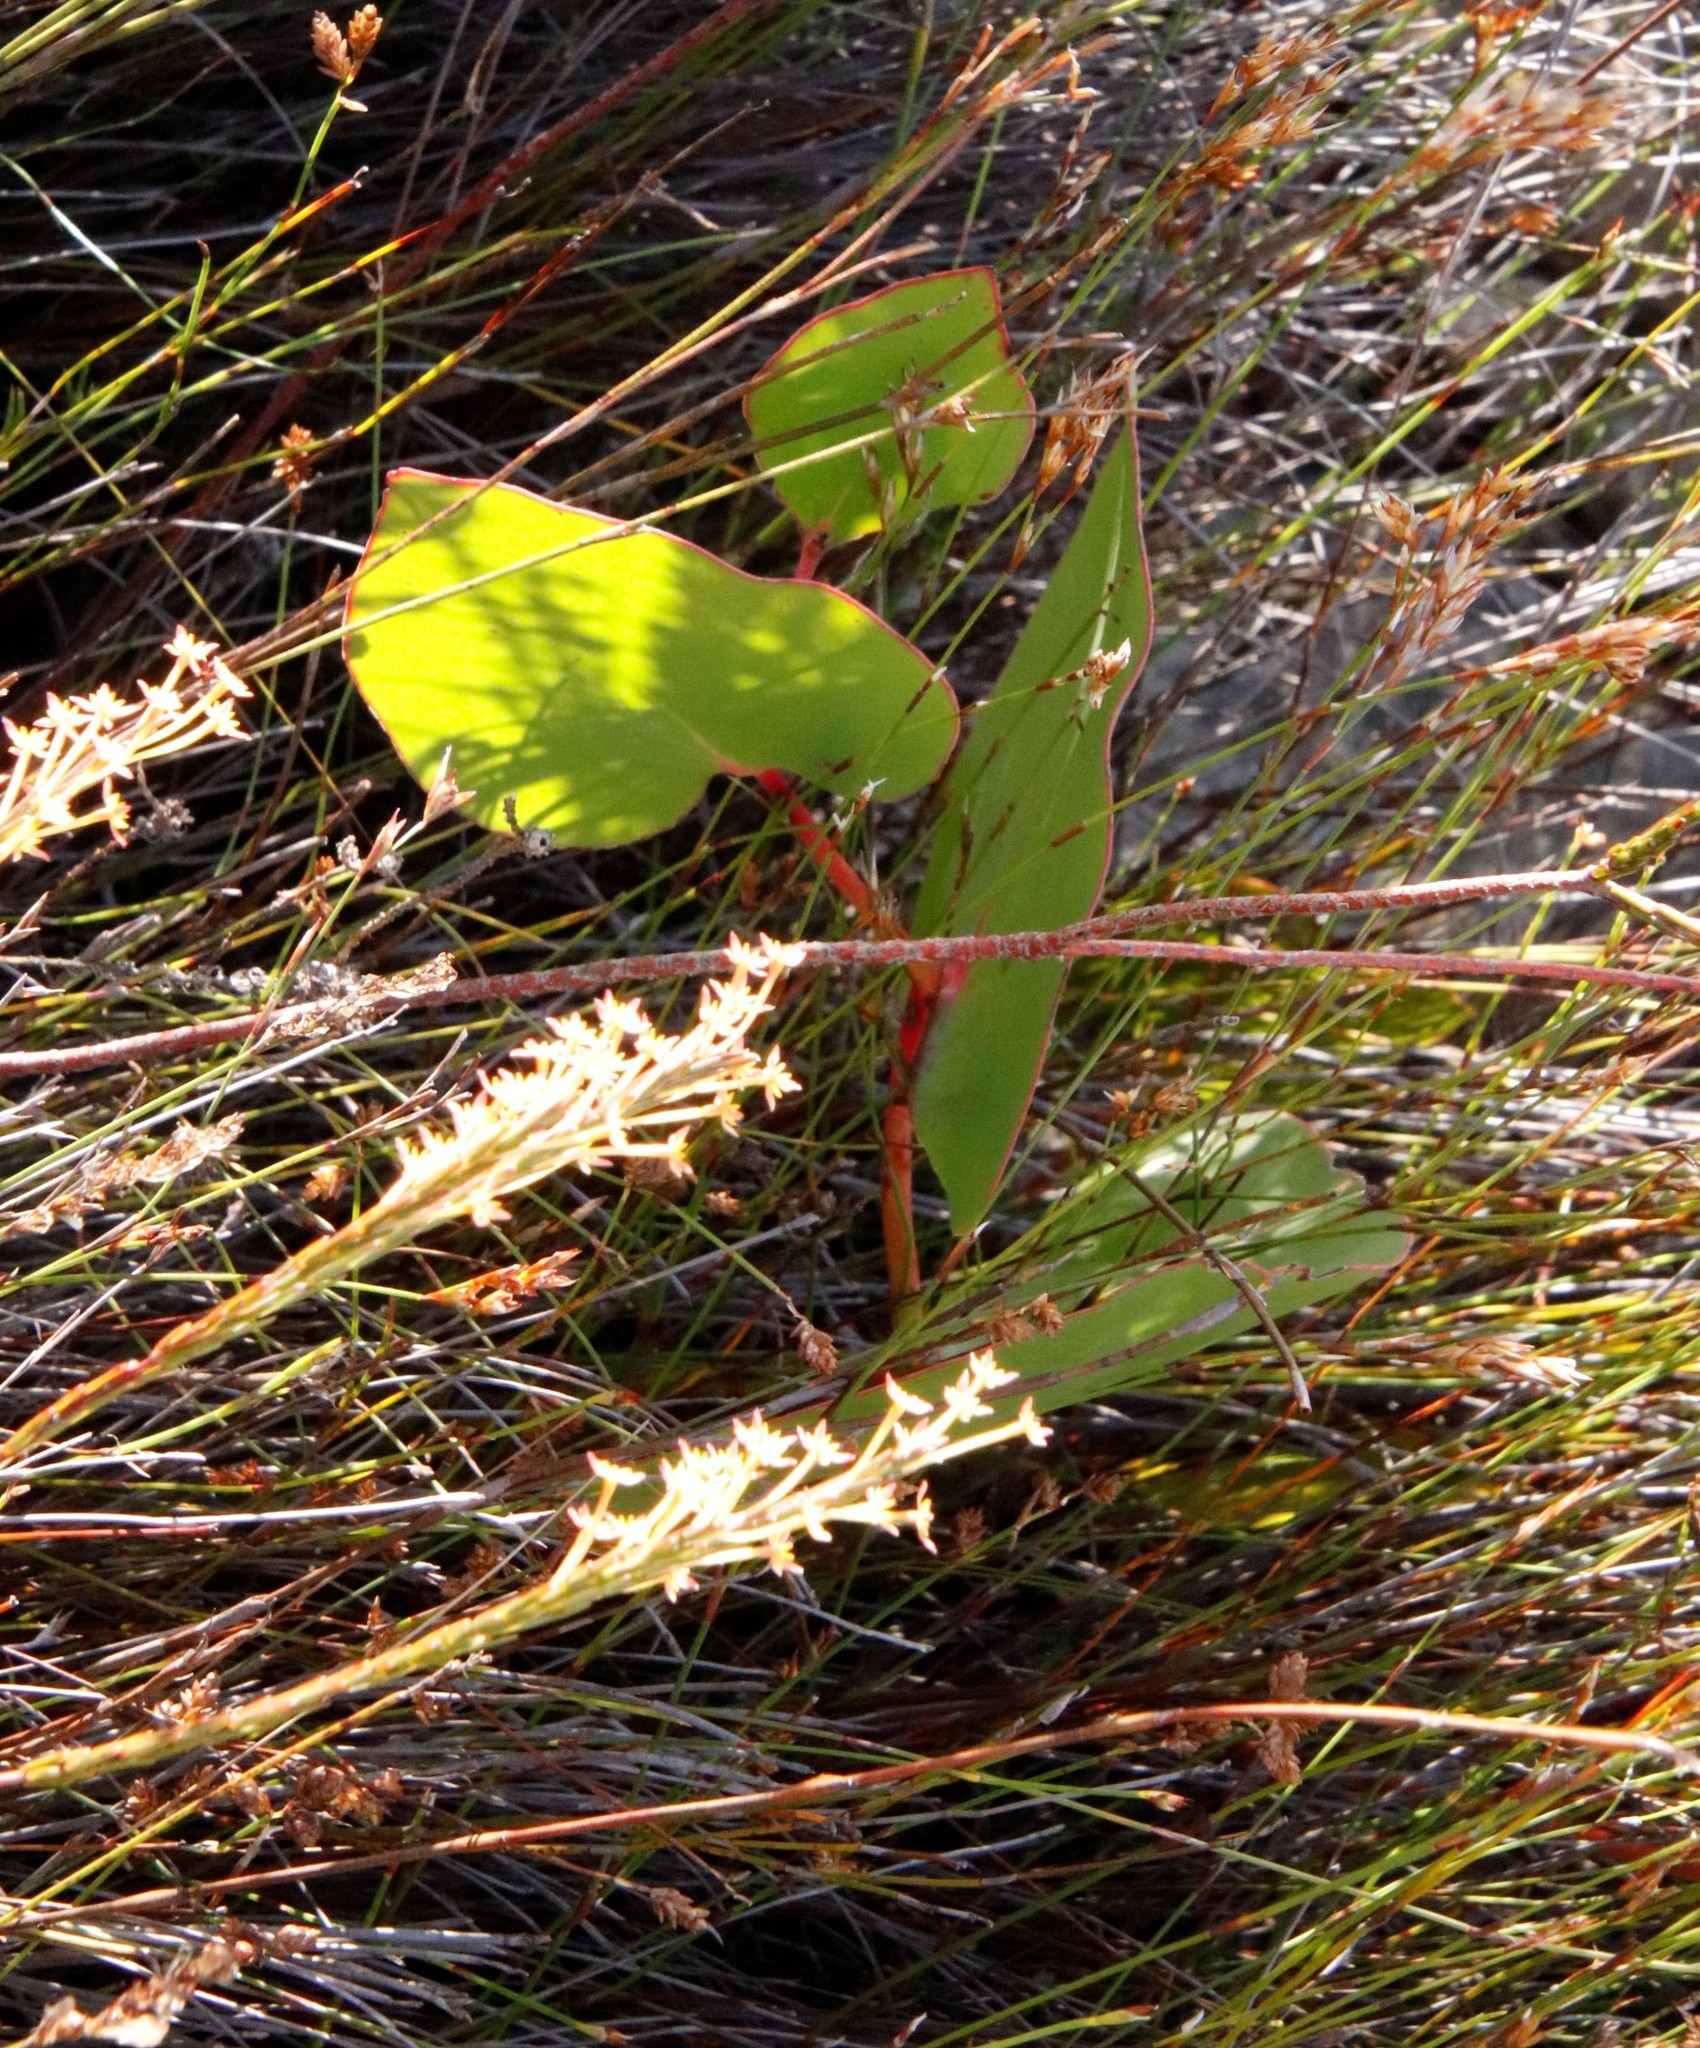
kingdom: Plantae
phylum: Tracheophyta
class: Magnoliopsida
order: Proteales
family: Proteaceae
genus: Protea
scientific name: Protea cordata
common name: Heart-leaf sugarbush
